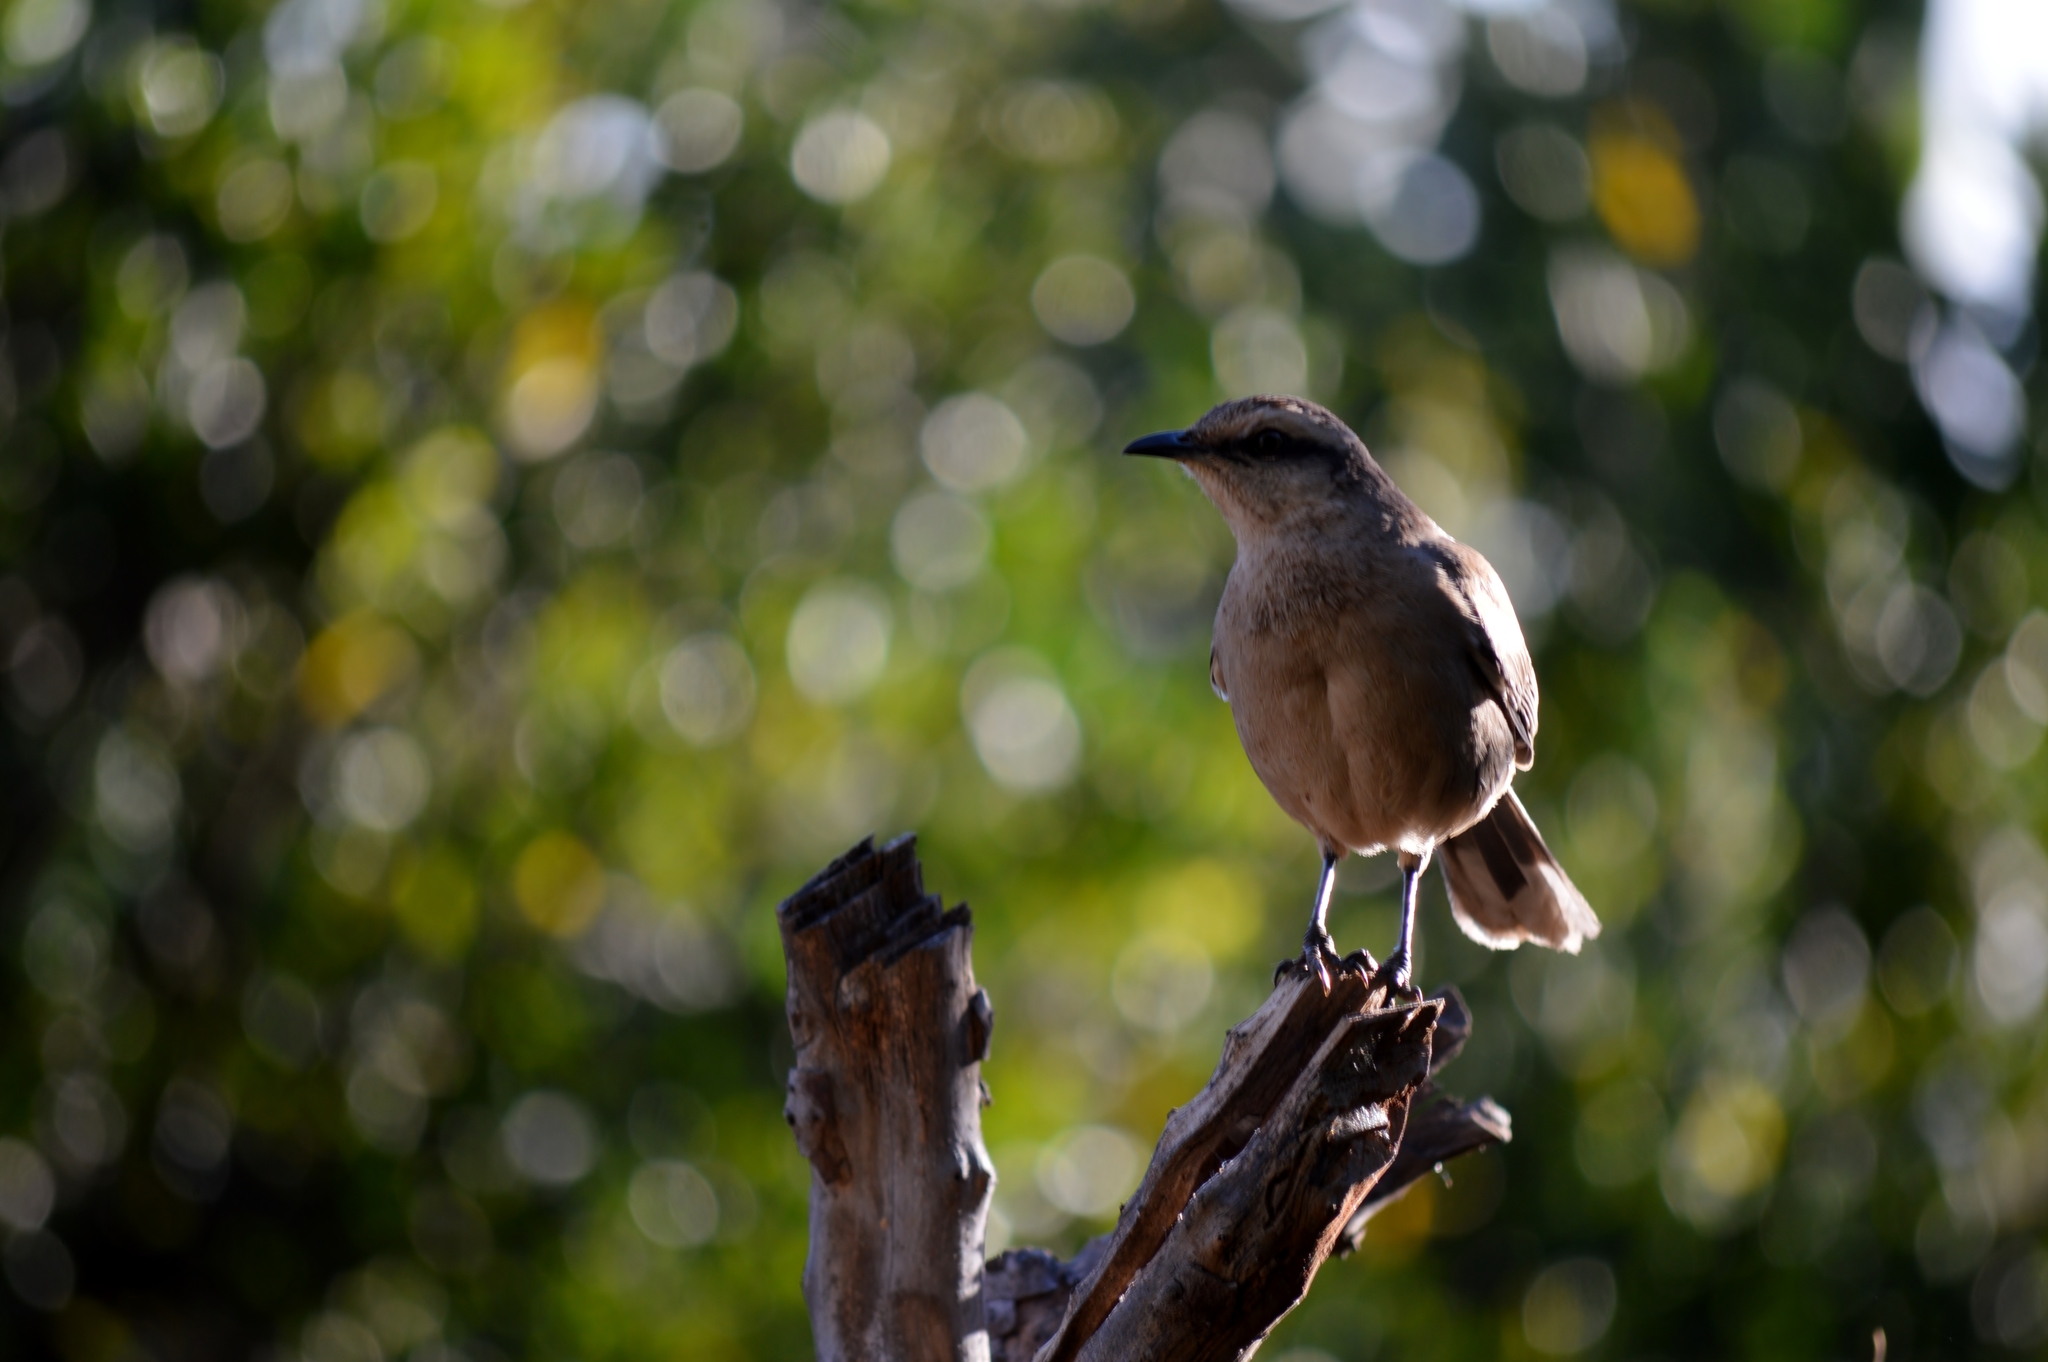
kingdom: Animalia
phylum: Chordata
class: Aves
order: Passeriformes
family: Mimidae
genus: Mimus
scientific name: Mimus saturninus
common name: Chalk-browed mockingbird
